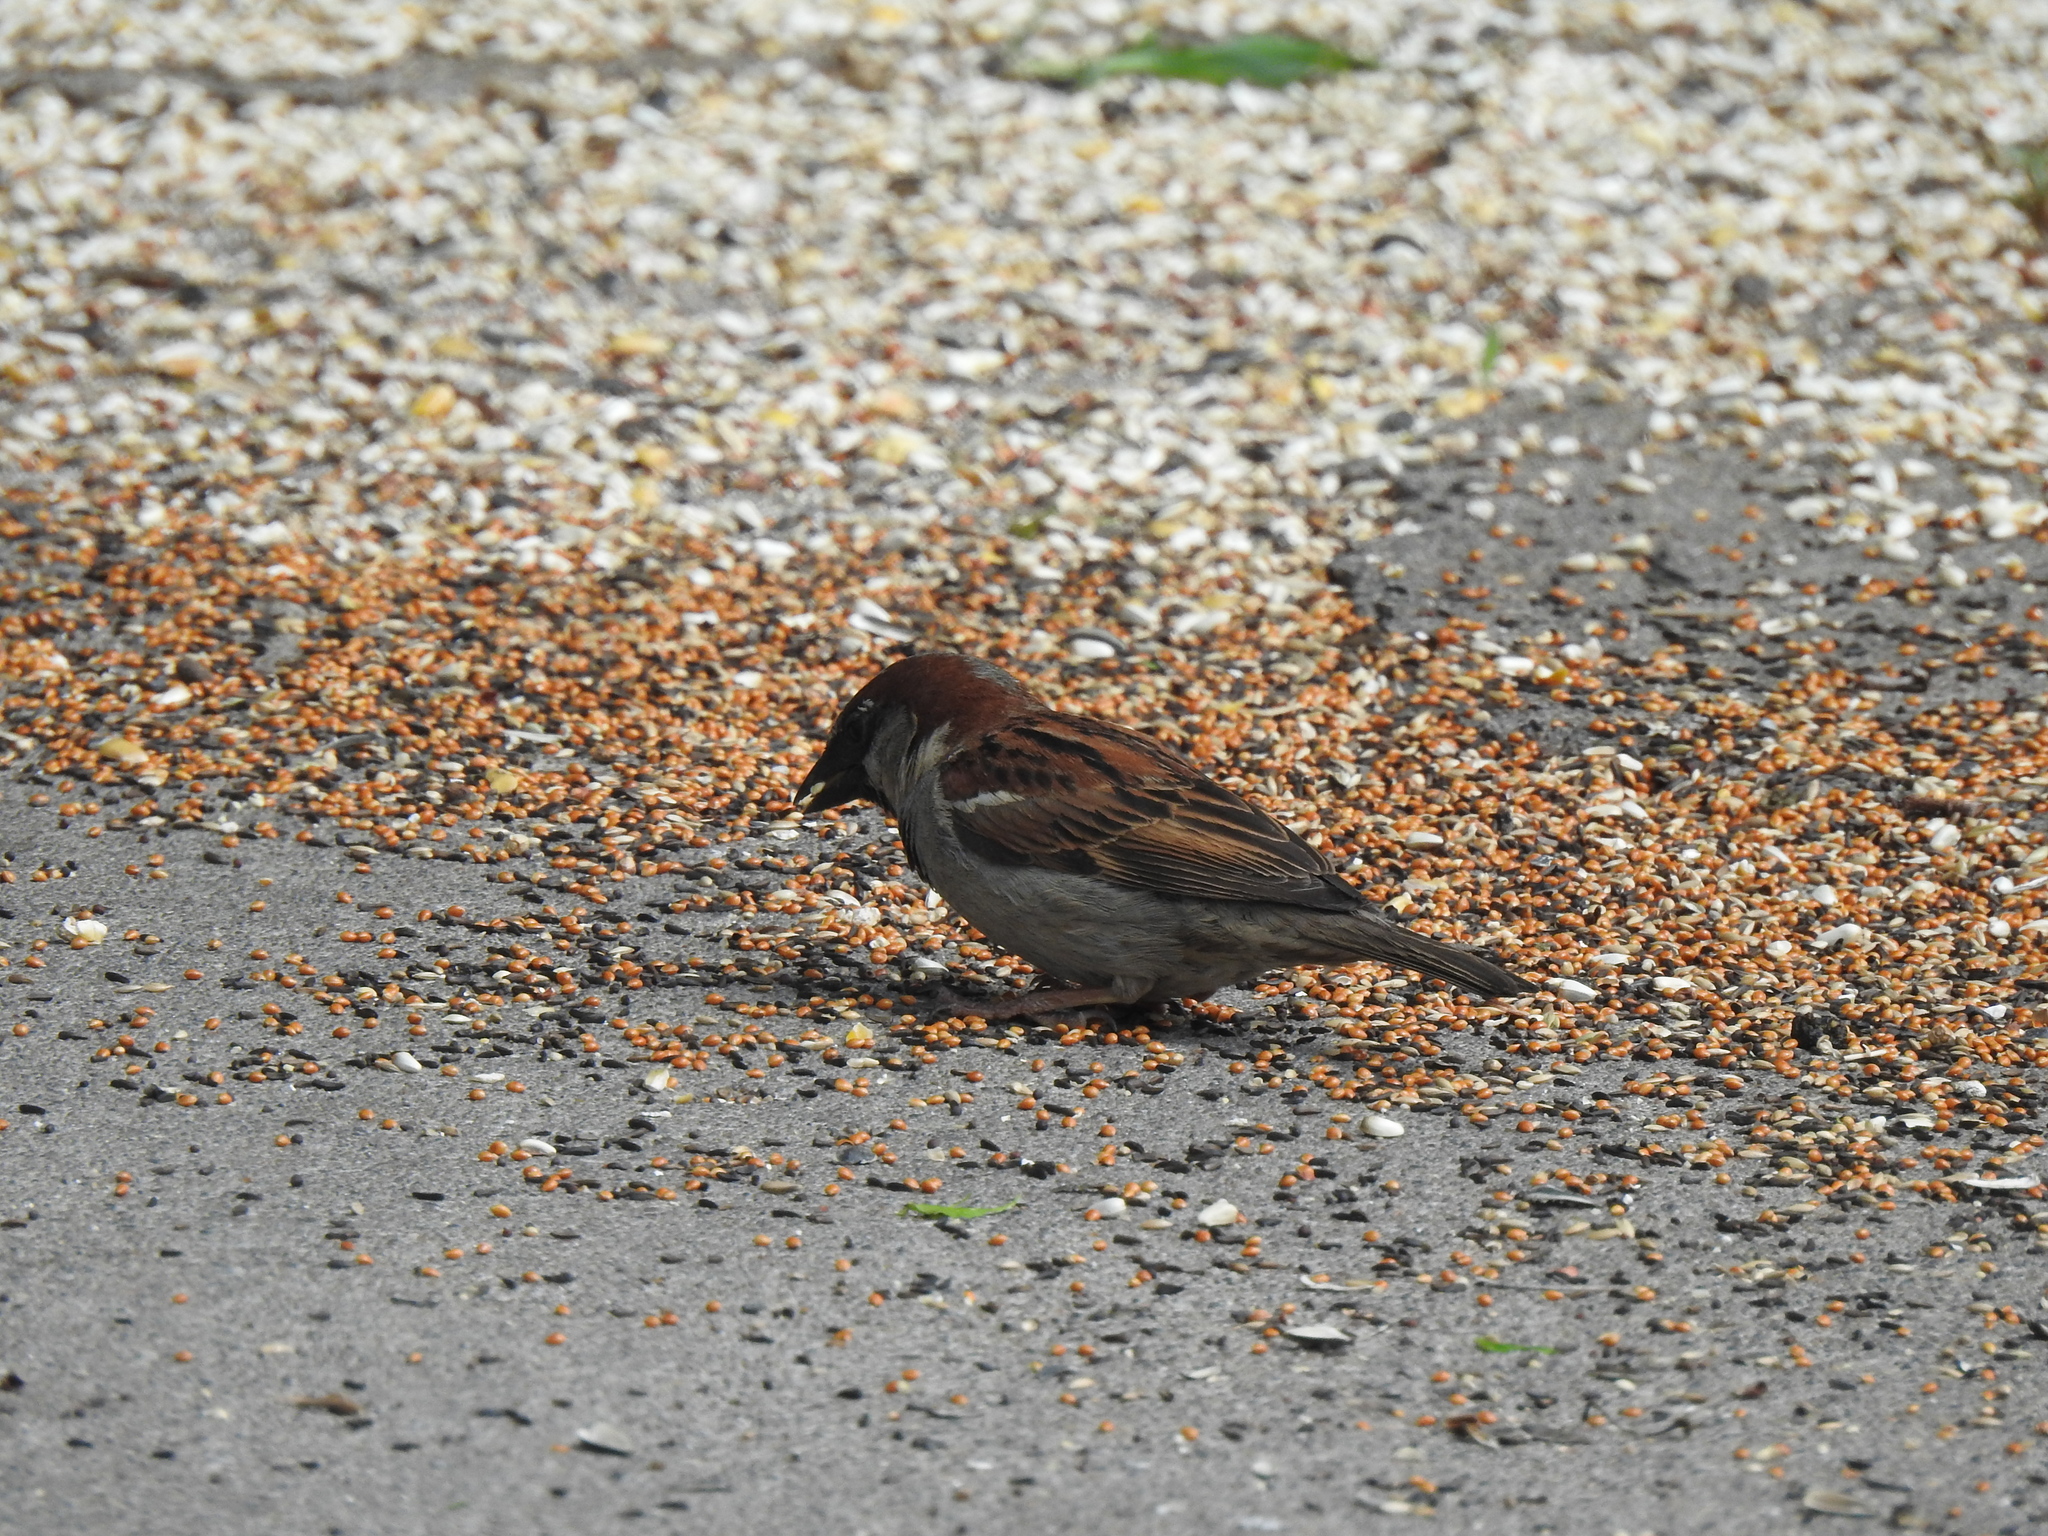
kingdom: Animalia
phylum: Chordata
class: Aves
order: Passeriformes
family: Passeridae
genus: Passer
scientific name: Passer domesticus
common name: House sparrow
